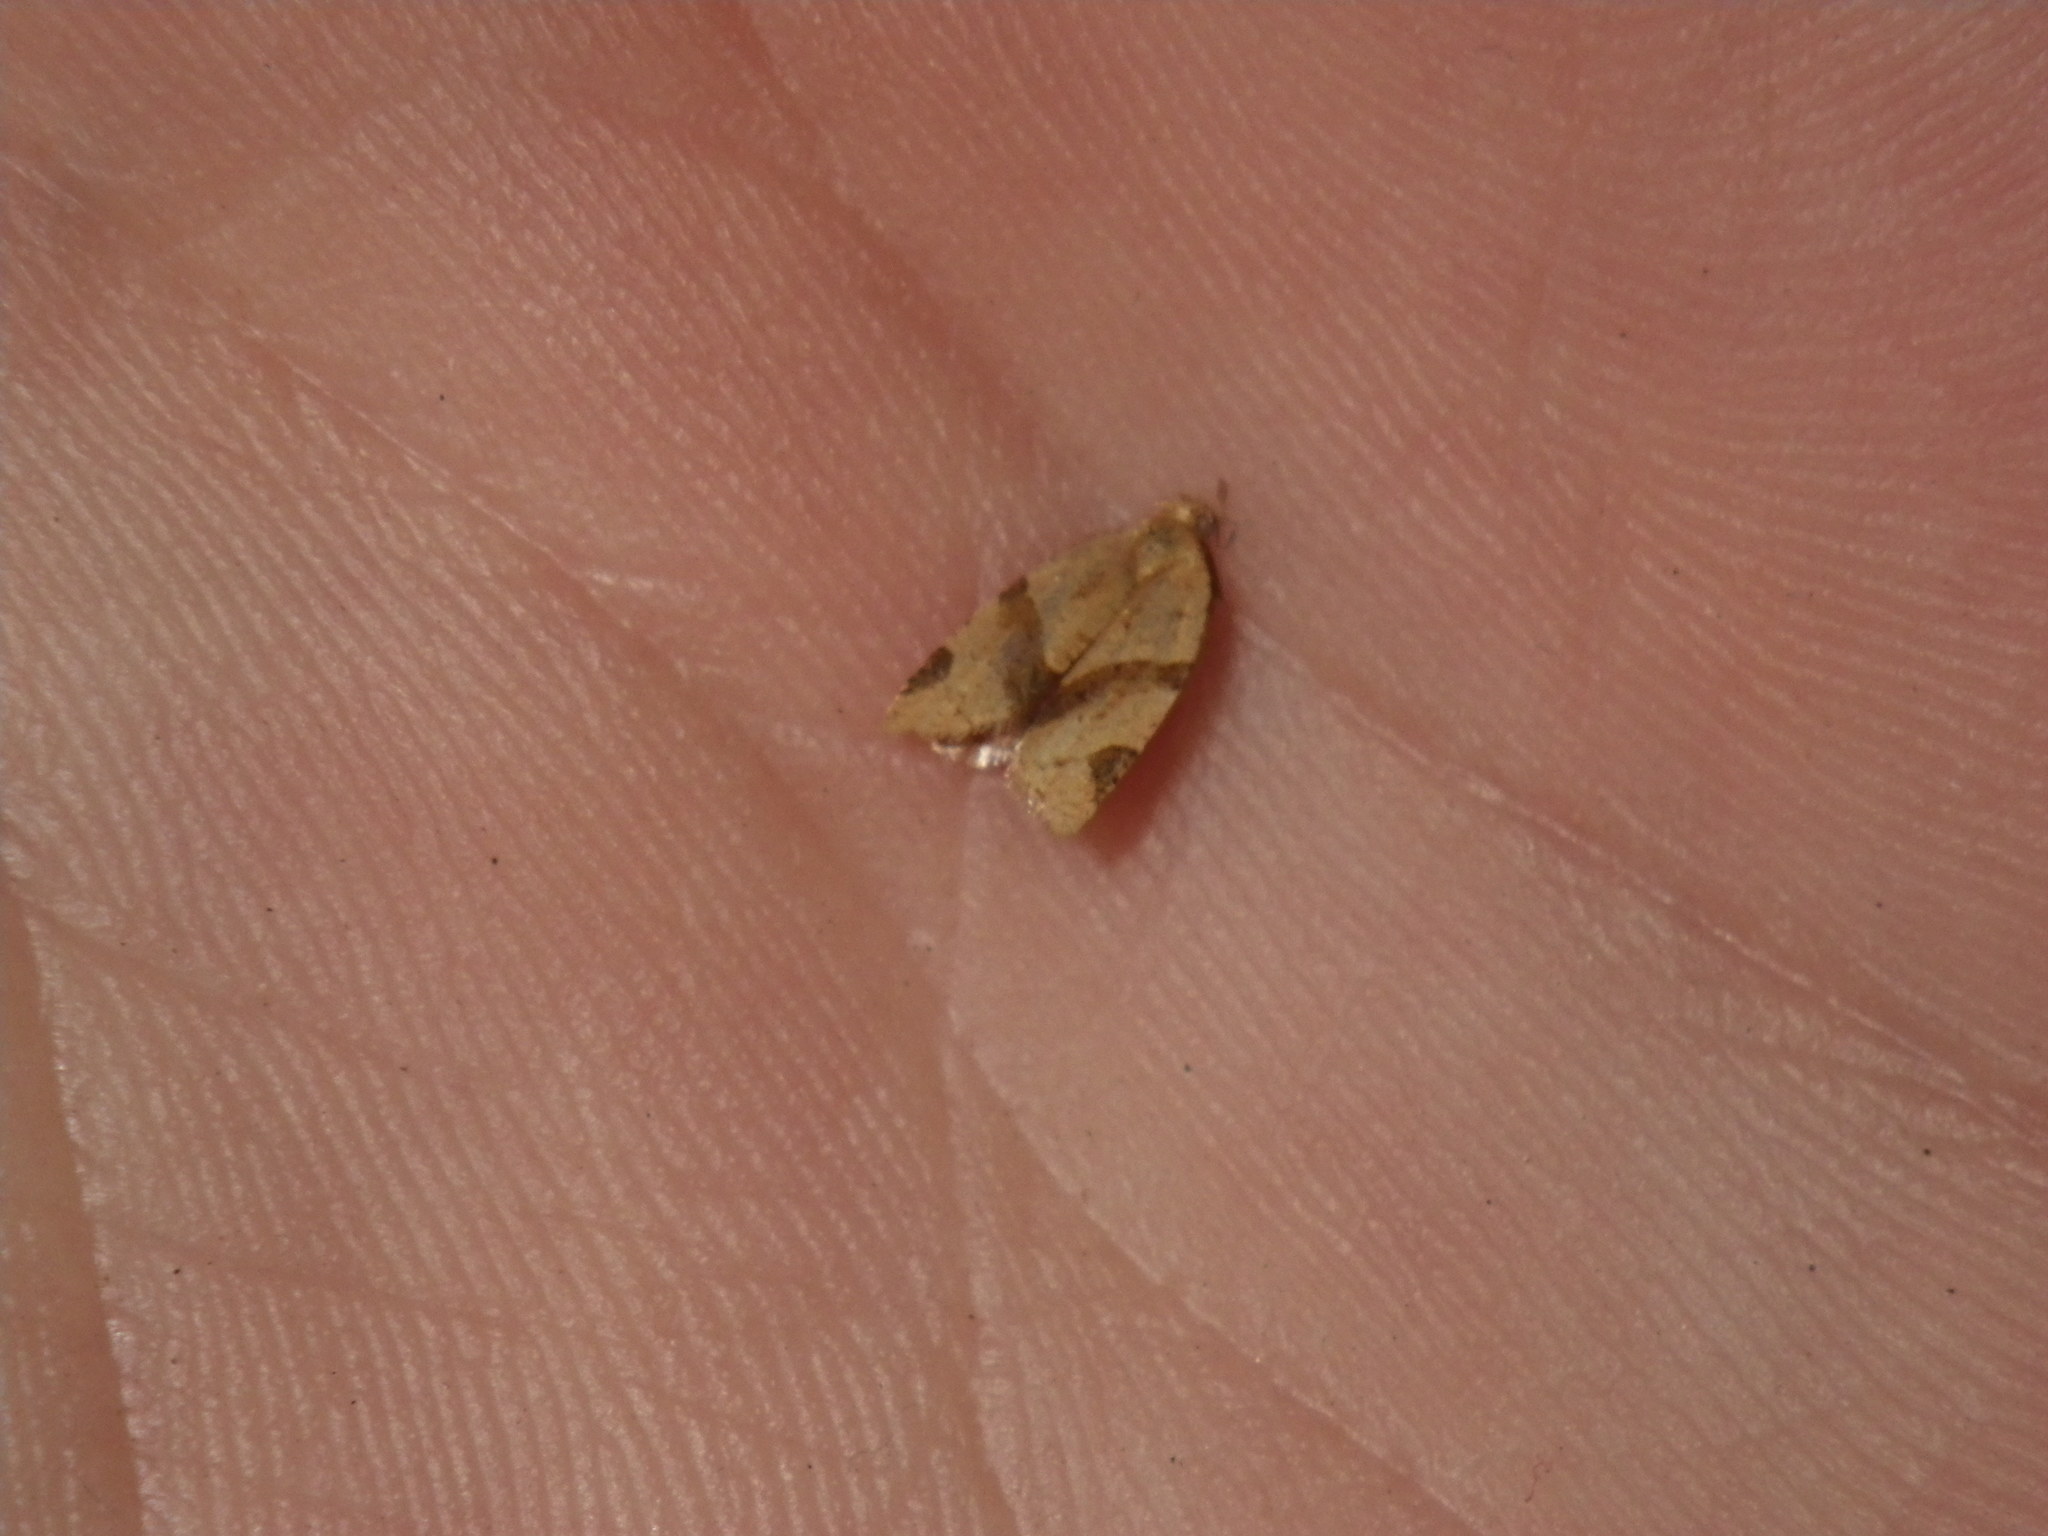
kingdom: Animalia
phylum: Arthropoda
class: Insecta
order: Lepidoptera
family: Tortricidae
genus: Clepsis
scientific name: Clepsis peritana
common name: Garden tortrix
